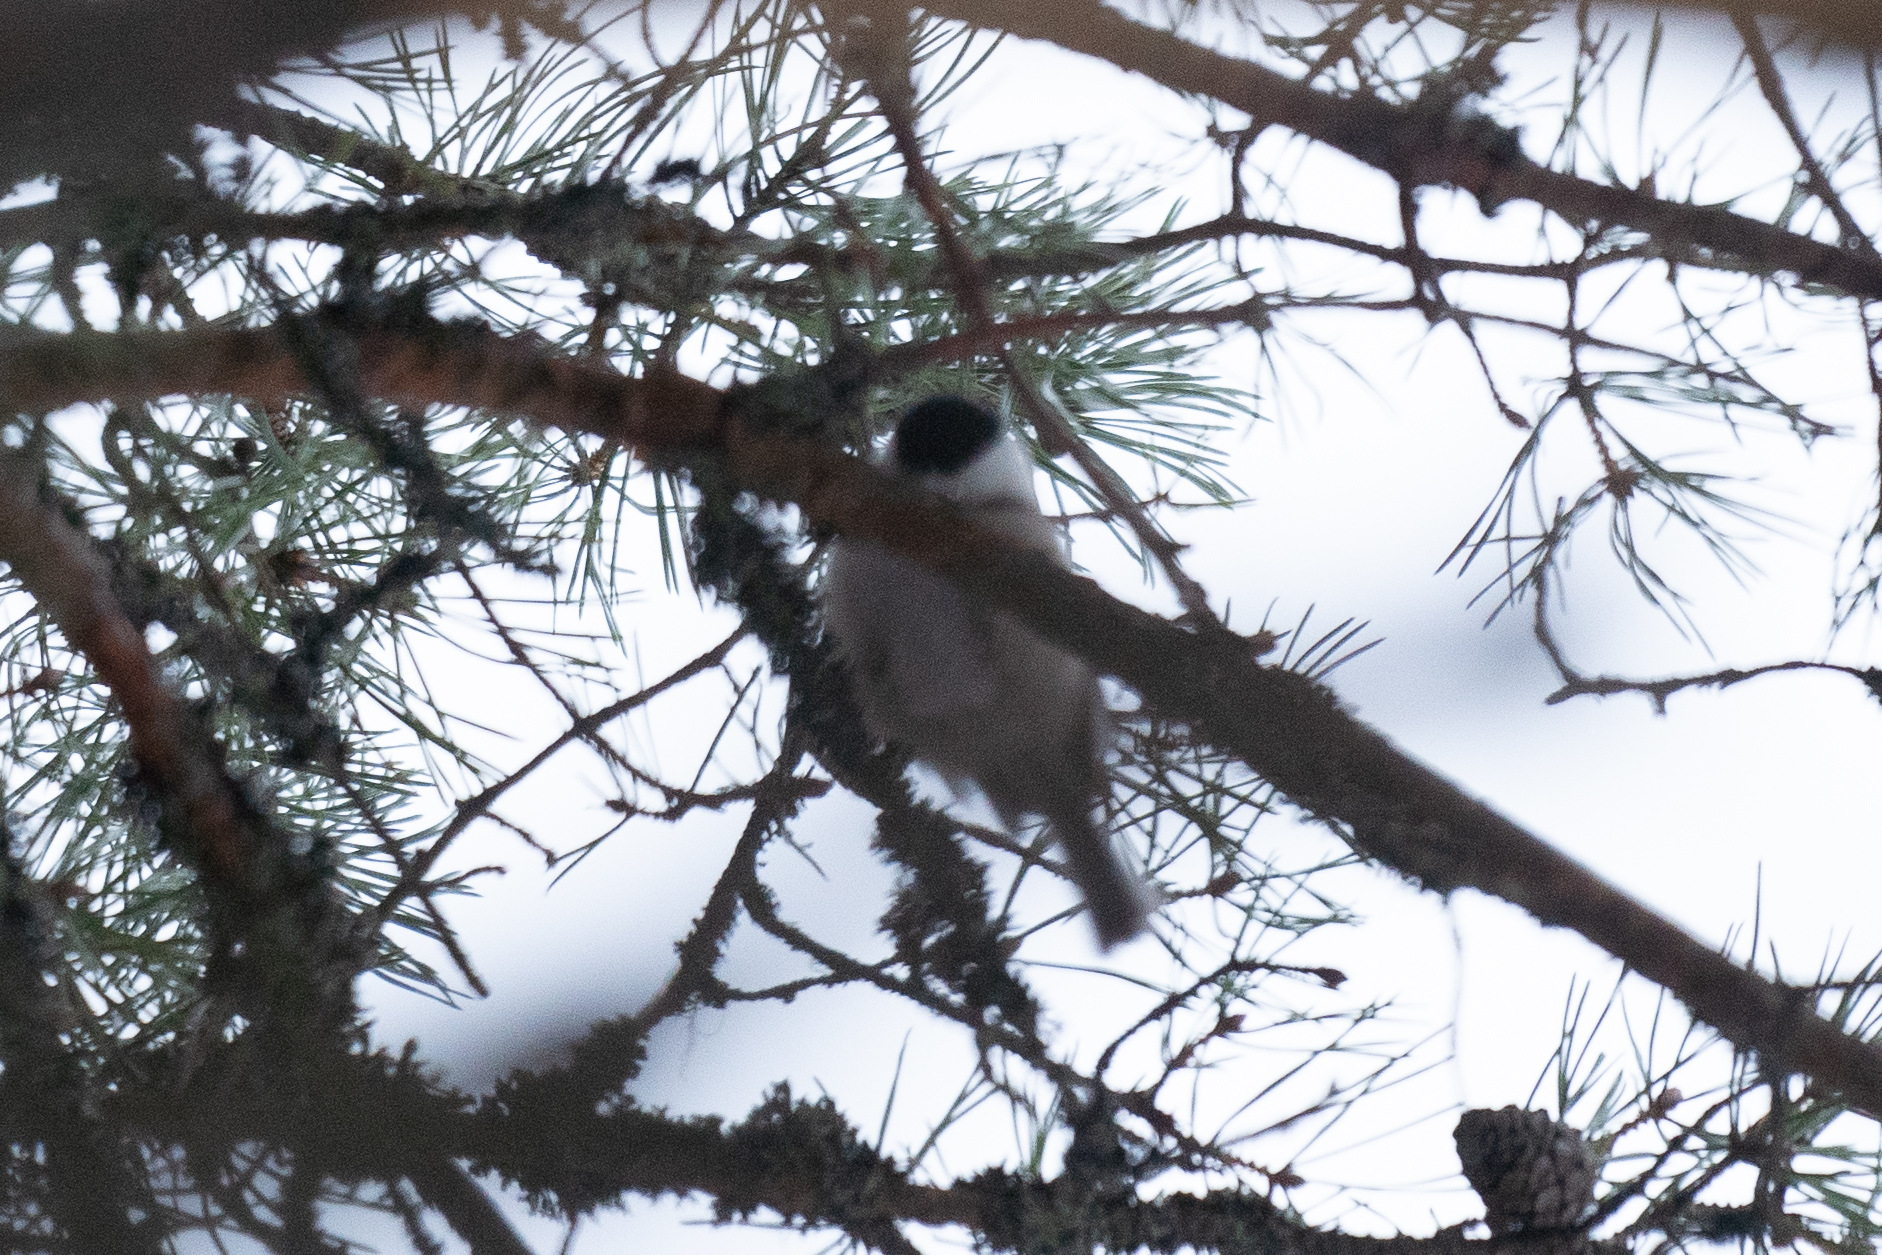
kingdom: Animalia
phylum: Chordata
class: Aves
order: Passeriformes
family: Paridae
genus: Poecile
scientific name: Poecile montanus
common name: Willow tit
